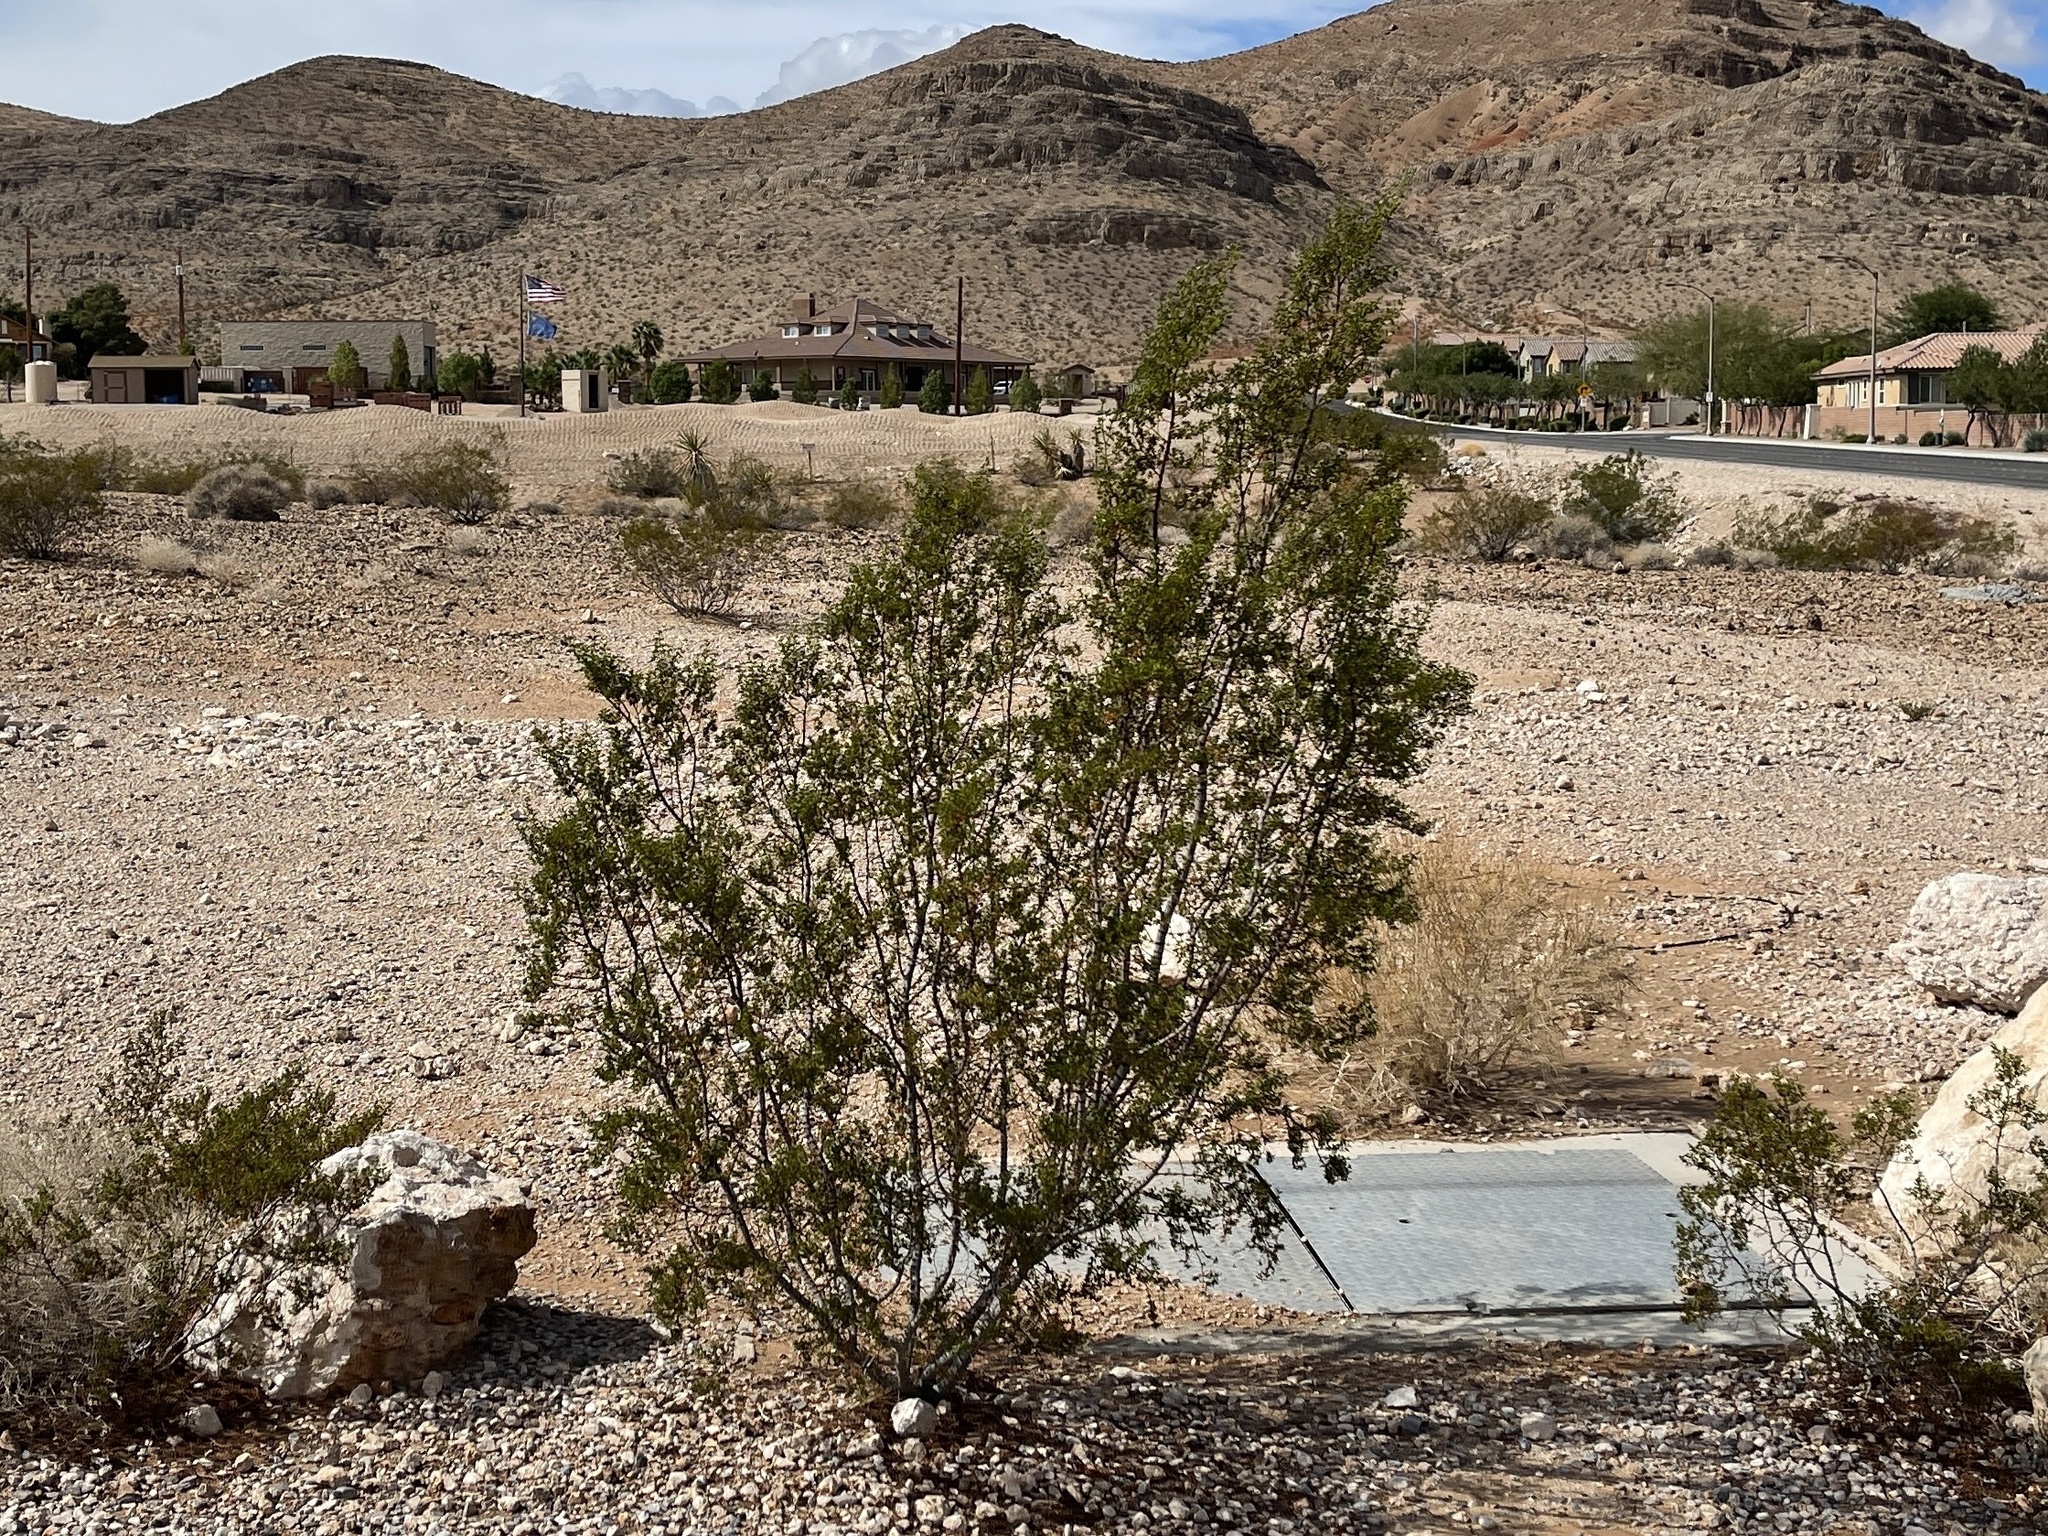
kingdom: Plantae
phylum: Tracheophyta
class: Magnoliopsida
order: Zygophyllales
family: Zygophyllaceae
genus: Larrea
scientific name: Larrea tridentata
